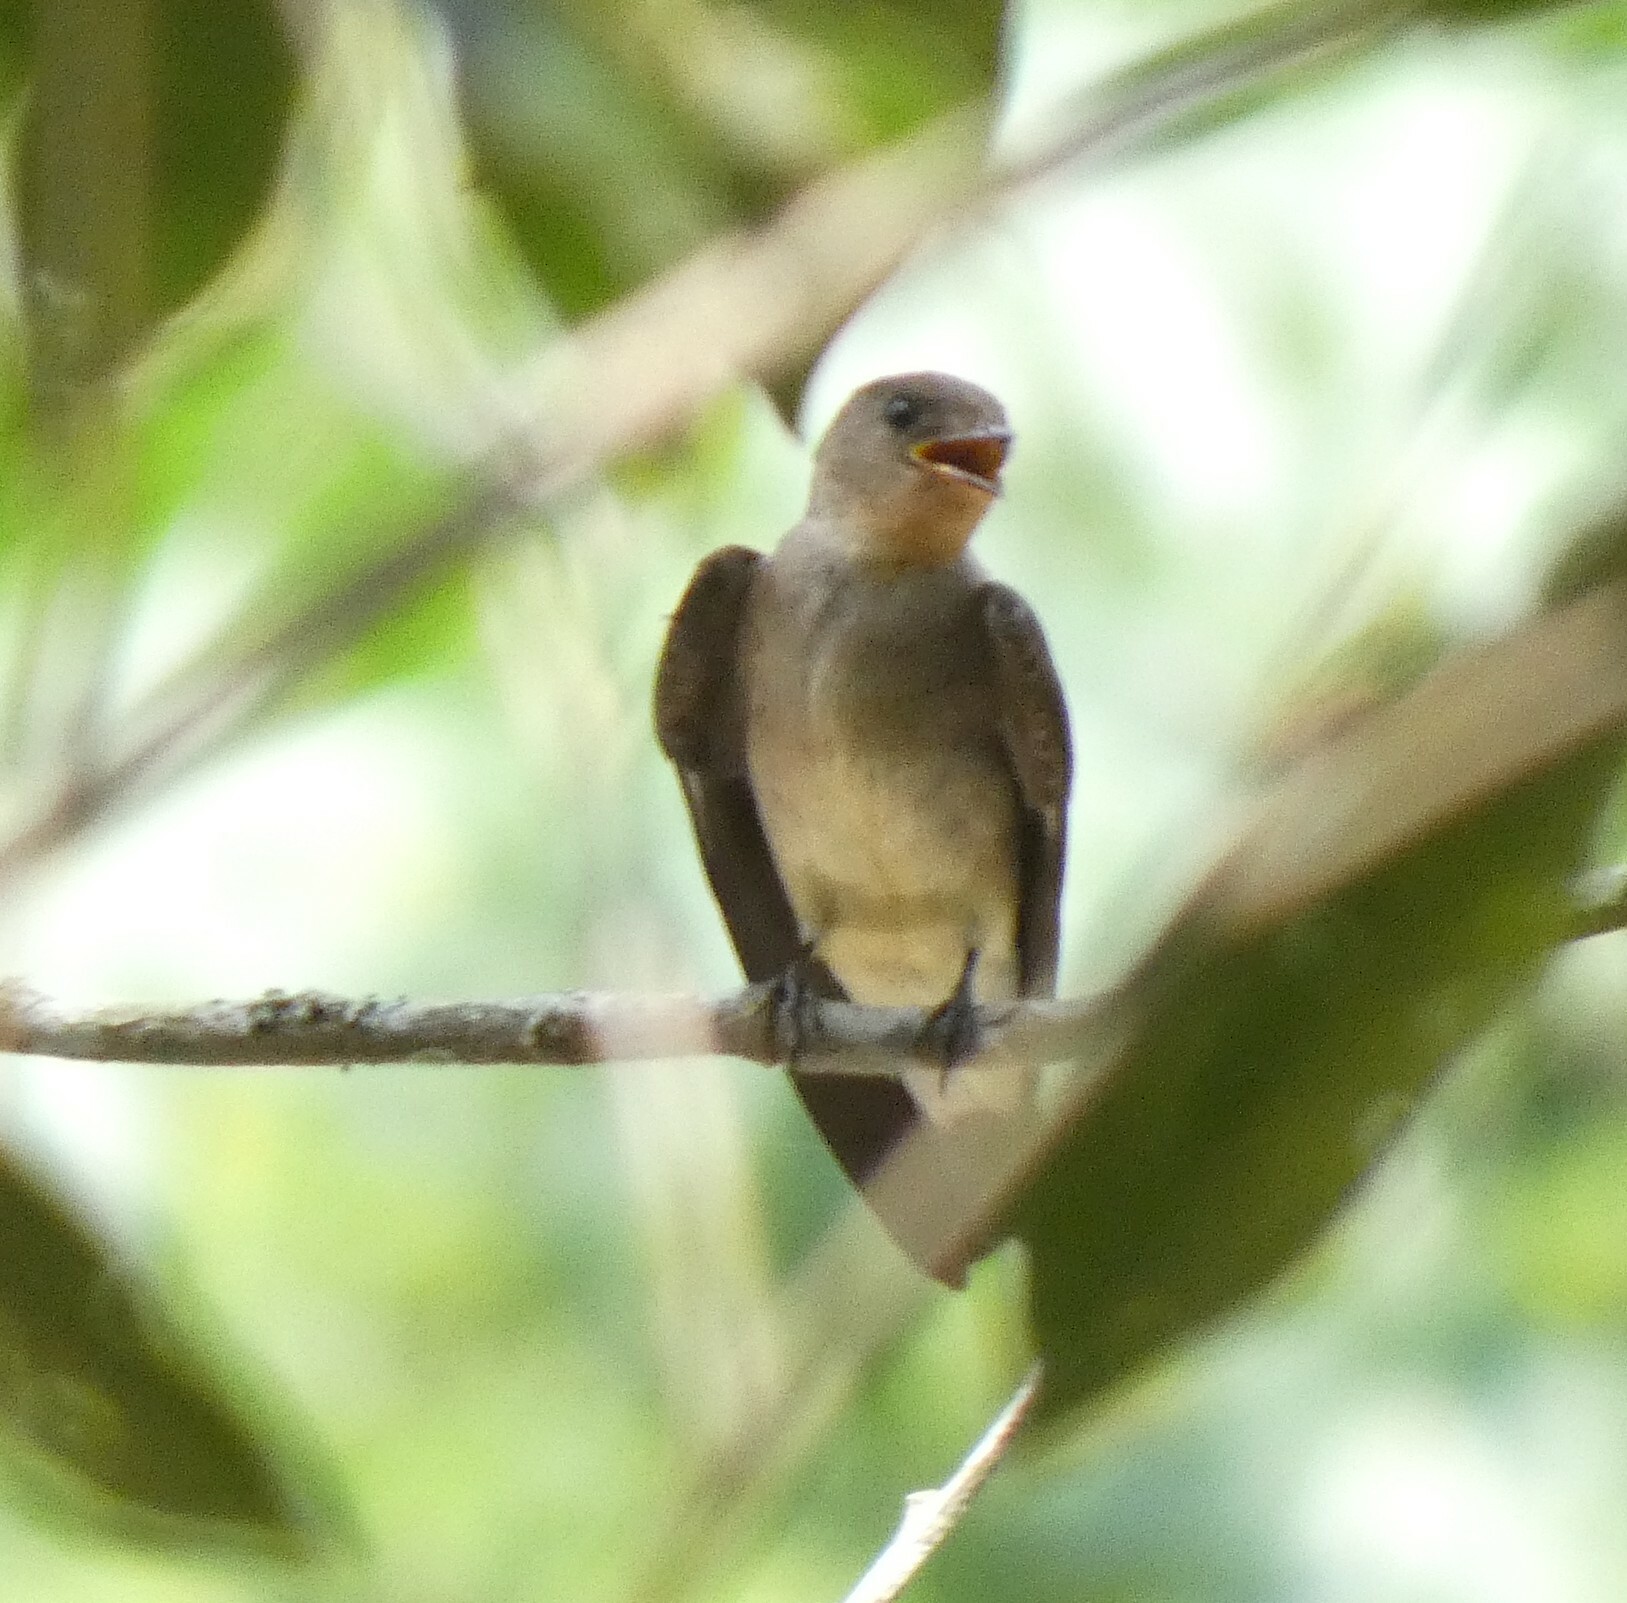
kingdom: Animalia
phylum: Chordata
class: Aves
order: Passeriformes
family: Hirundinidae
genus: Stelgidopteryx
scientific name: Stelgidopteryx ruficollis
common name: Southern rough-winged swallow
